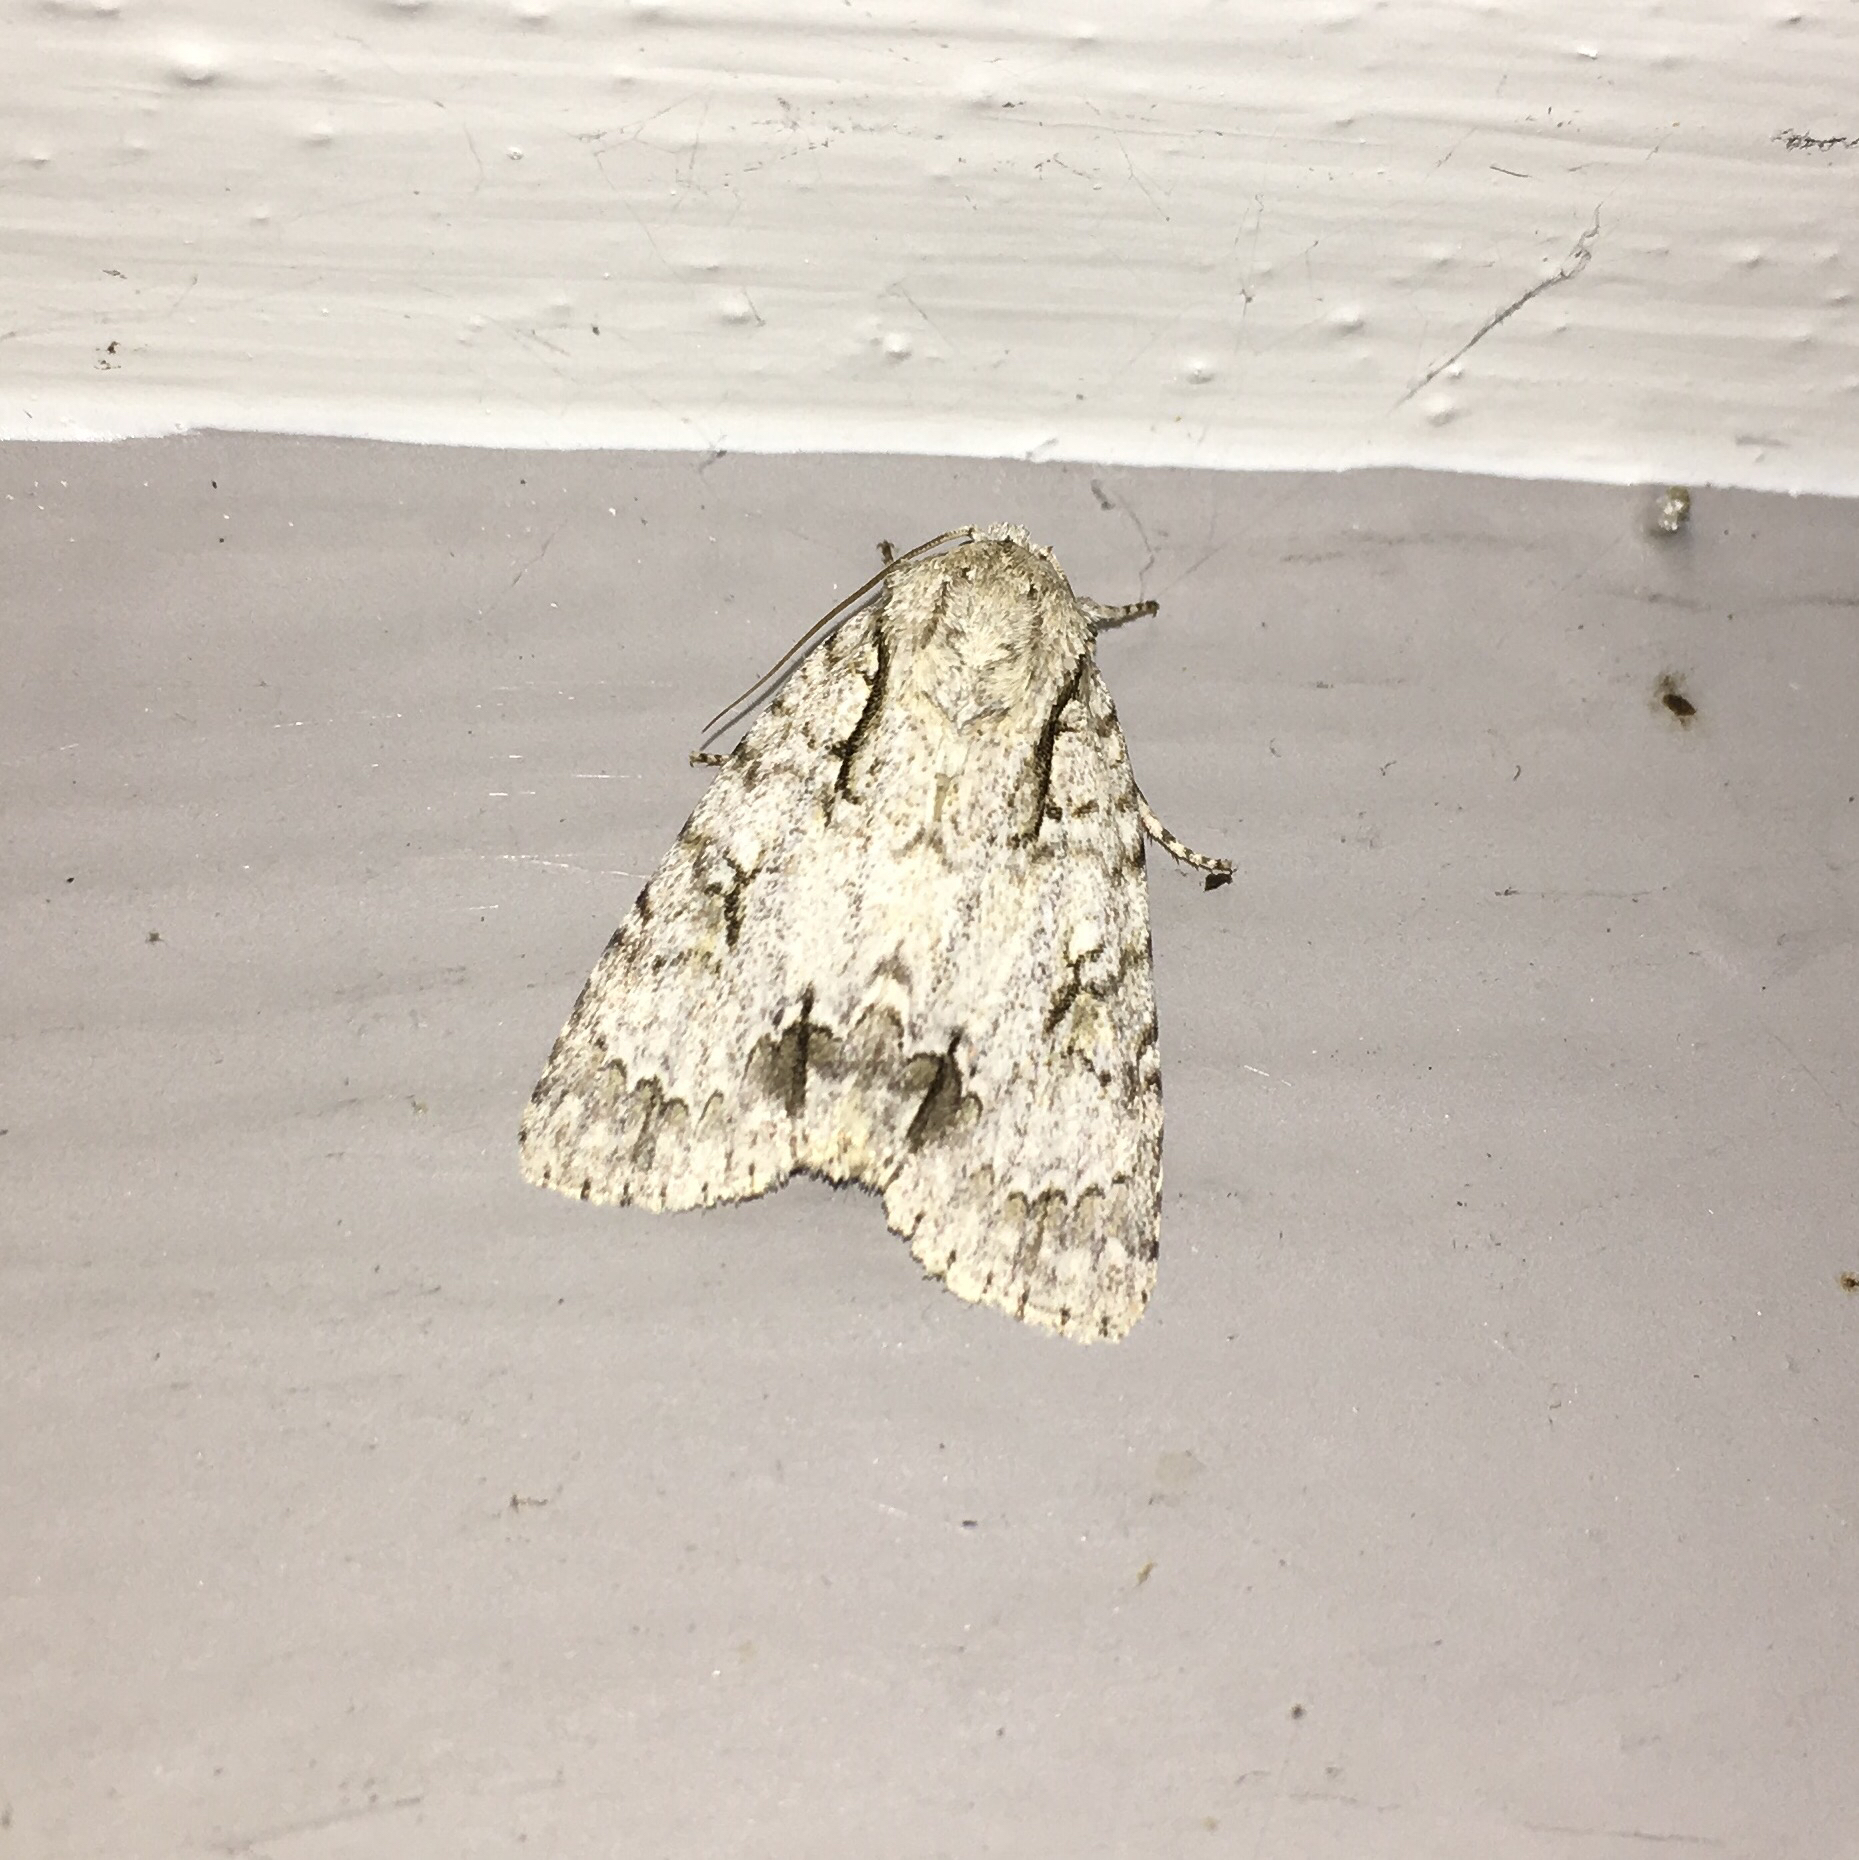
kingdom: Animalia
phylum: Arthropoda
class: Insecta
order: Lepidoptera
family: Noctuidae
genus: Acronicta
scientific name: Acronicta interrupta
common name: Interrupted dagger
